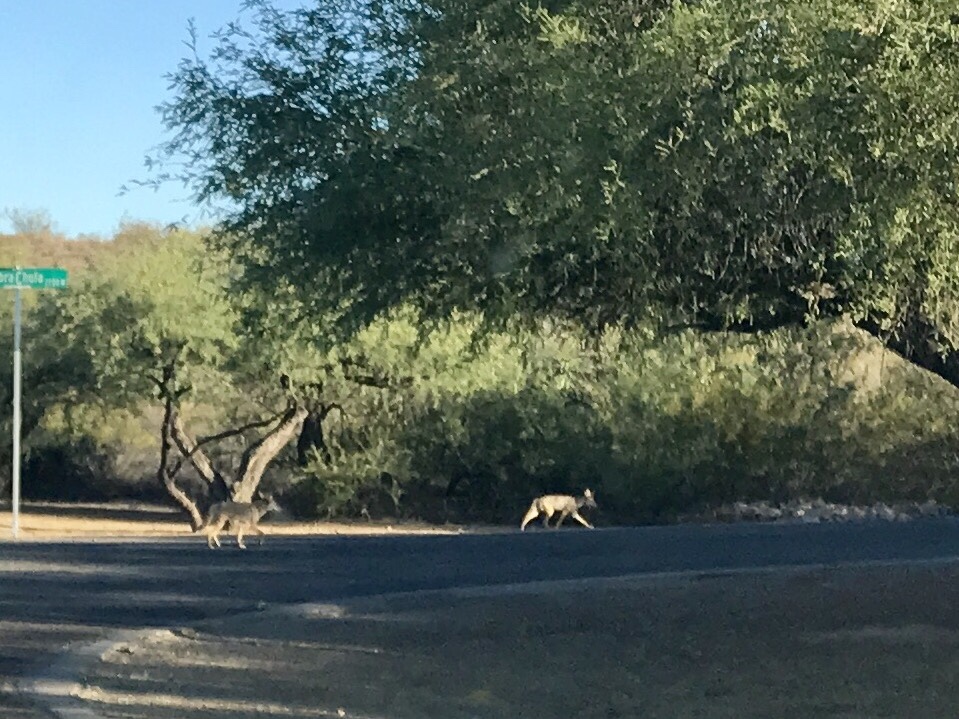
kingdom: Animalia
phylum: Chordata
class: Mammalia
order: Carnivora
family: Canidae
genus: Canis
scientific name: Canis latrans
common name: Coyote
